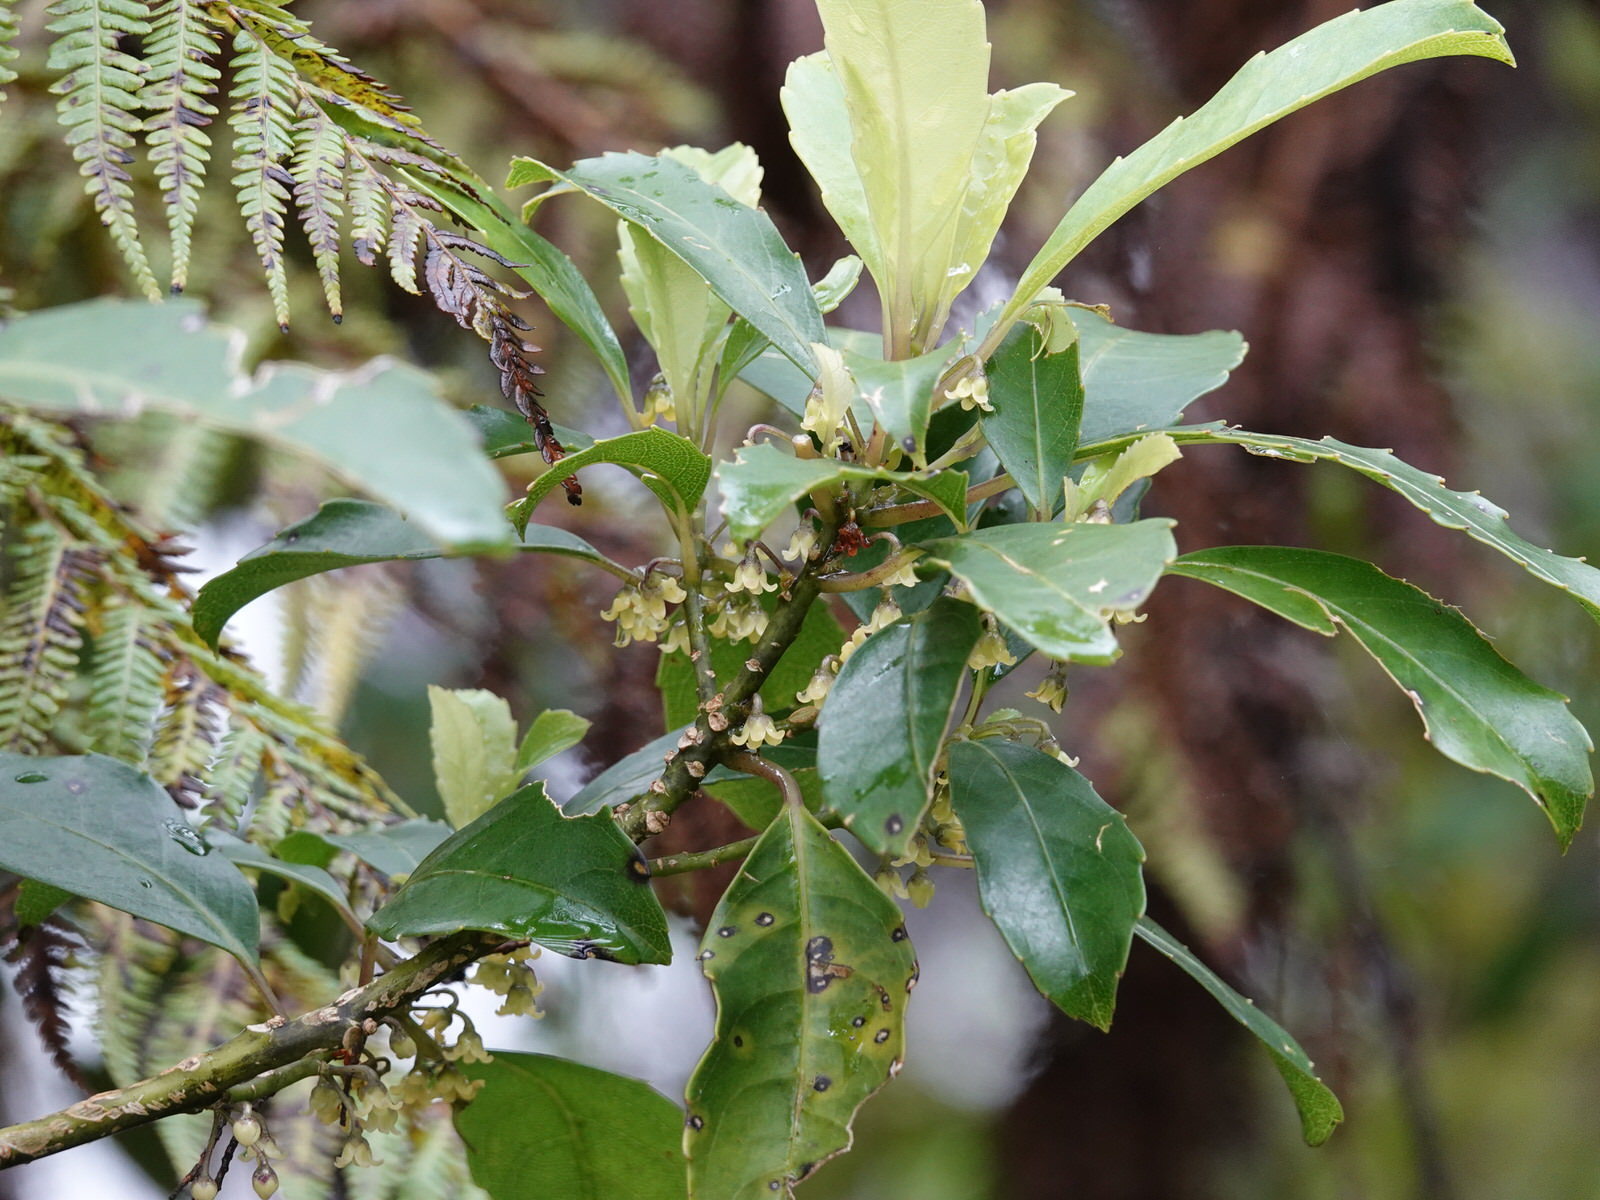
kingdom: Plantae
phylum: Tracheophyta
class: Magnoliopsida
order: Malpighiales
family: Violaceae
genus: Melicytus
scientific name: Melicytus macrophyllus
